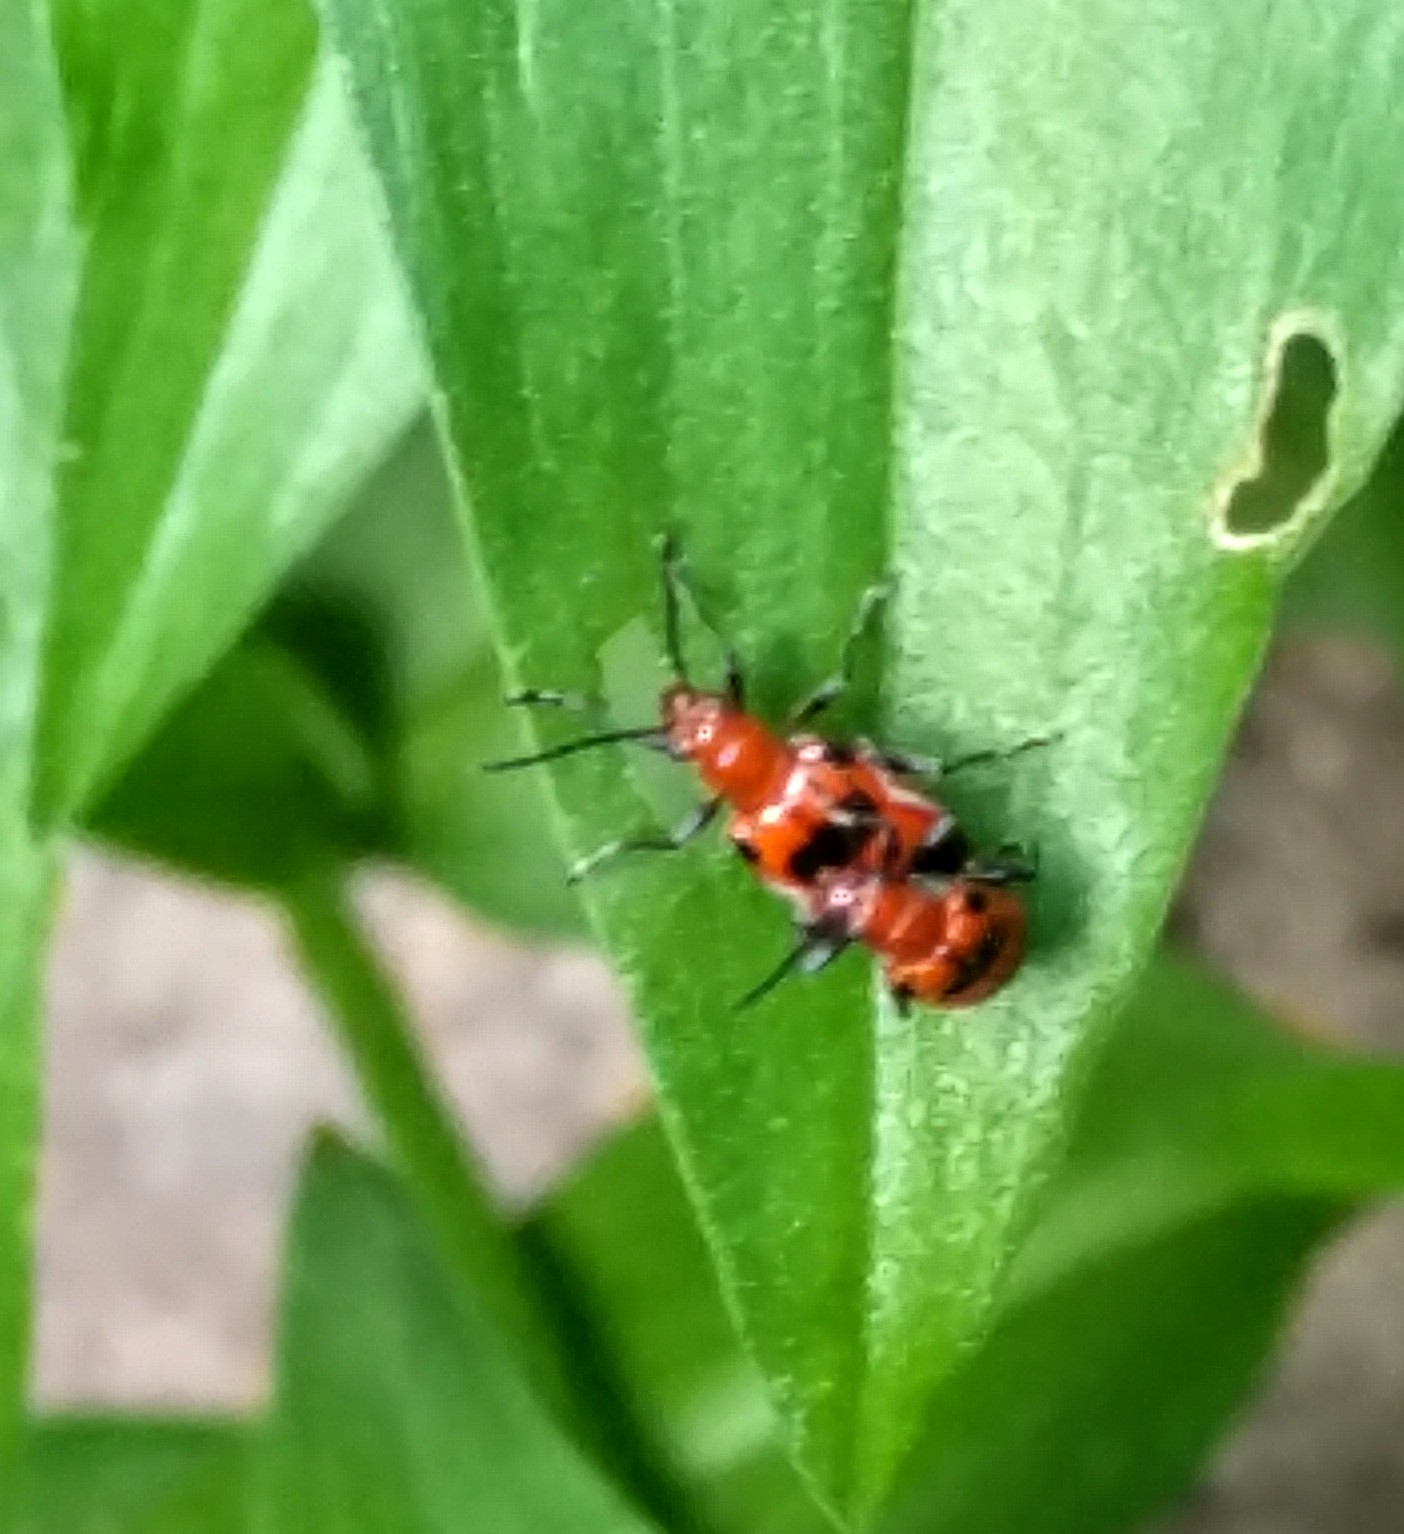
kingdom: Animalia
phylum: Arthropoda
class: Insecta
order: Coleoptera
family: Chrysomelidae
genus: Neolema
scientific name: Neolema sexpunctata
